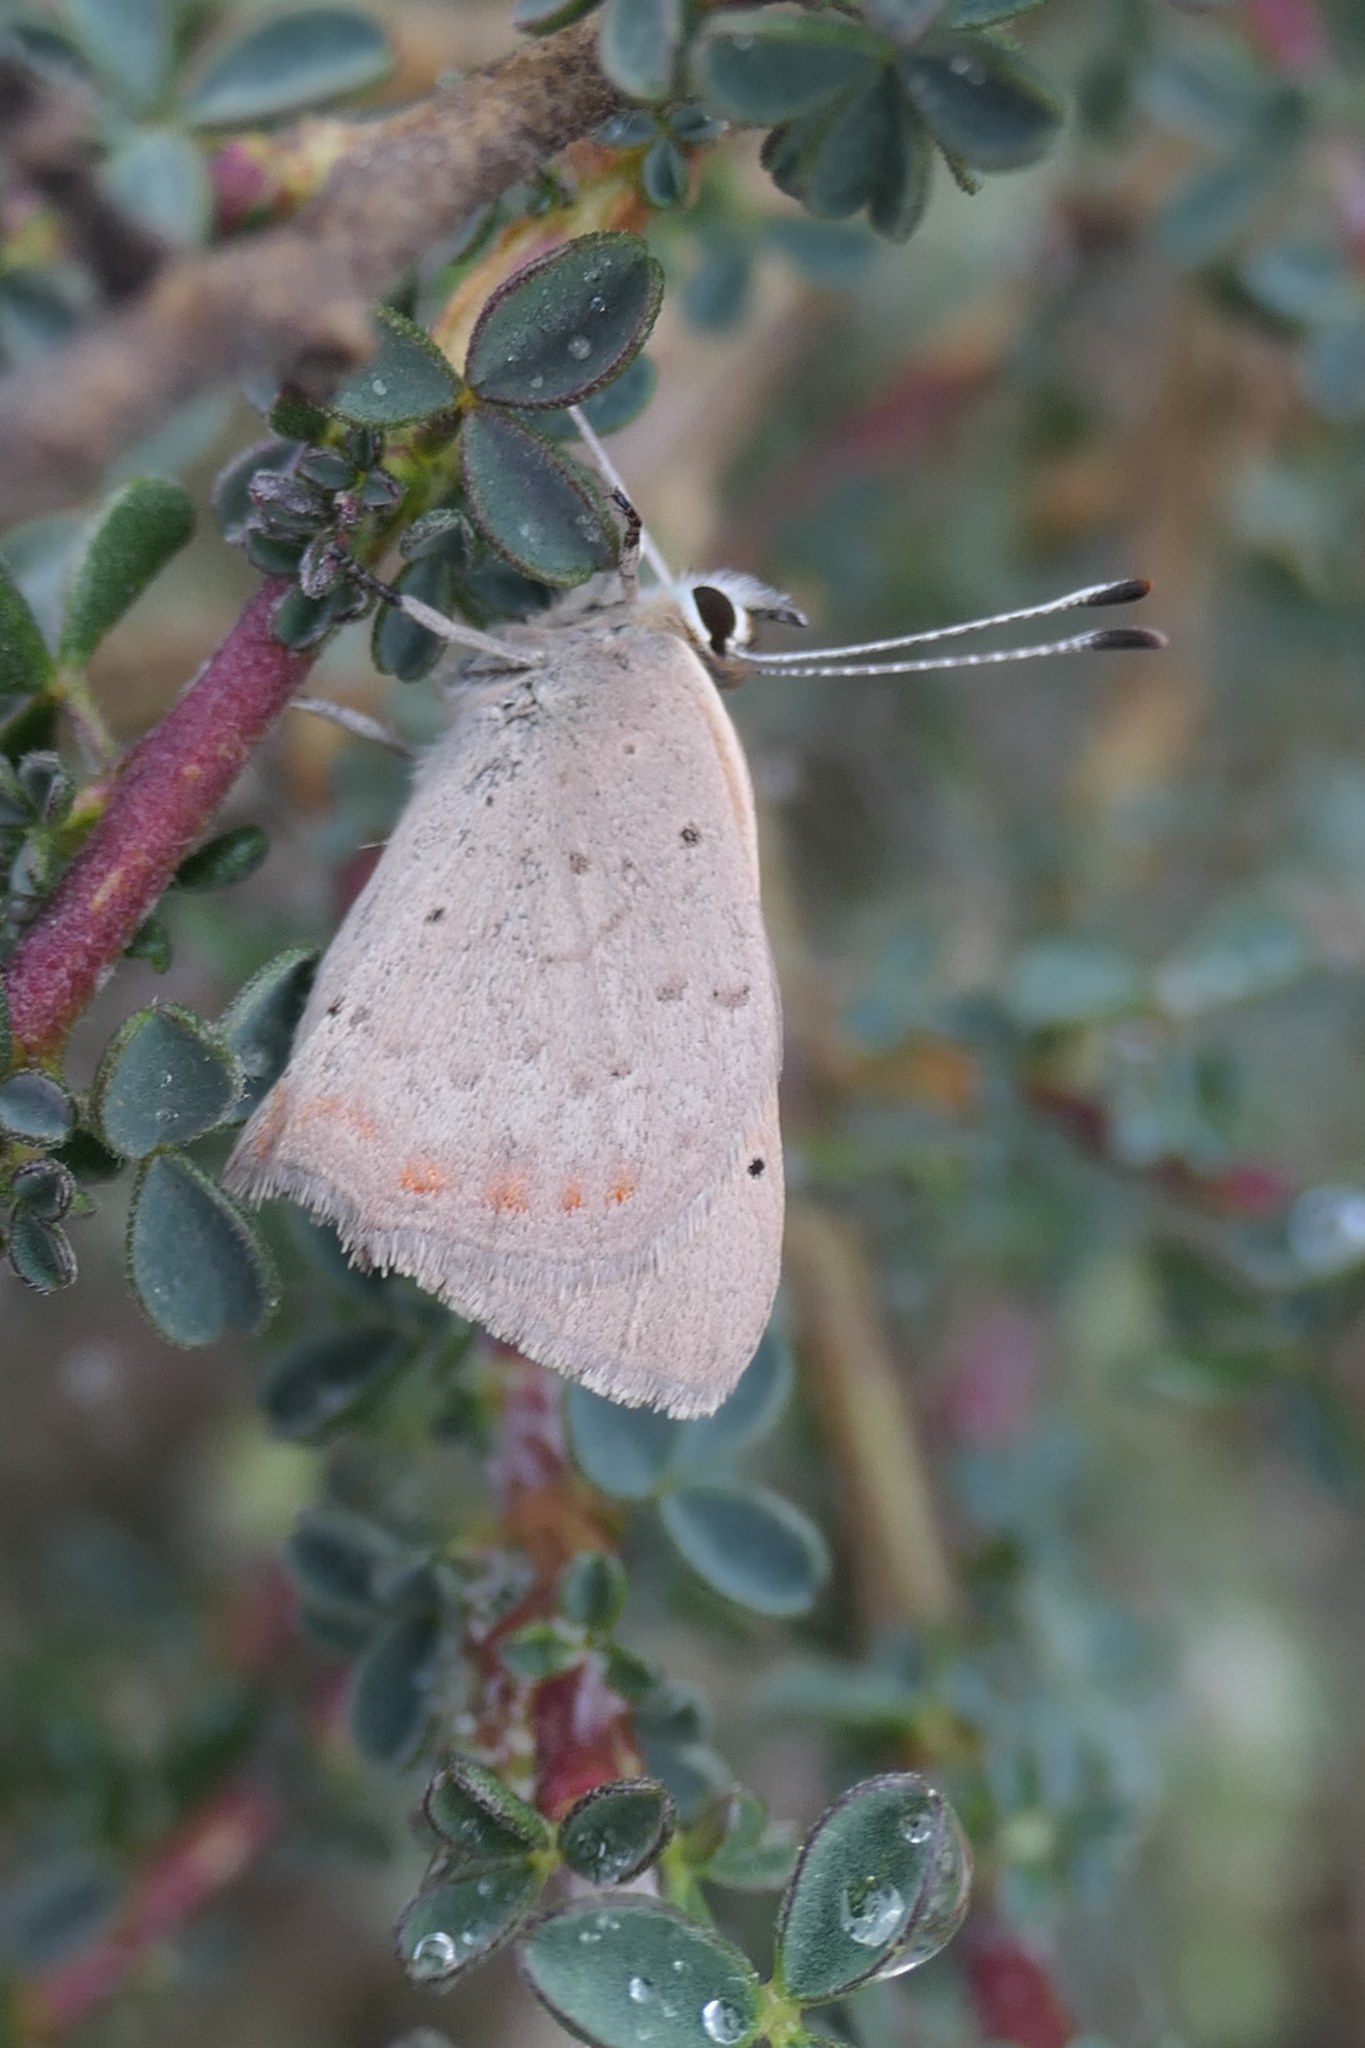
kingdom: Animalia
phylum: Arthropoda
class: Insecta
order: Lepidoptera
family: Lycaenidae
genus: Lycaena
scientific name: Lycaena phlaeas
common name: Small copper
